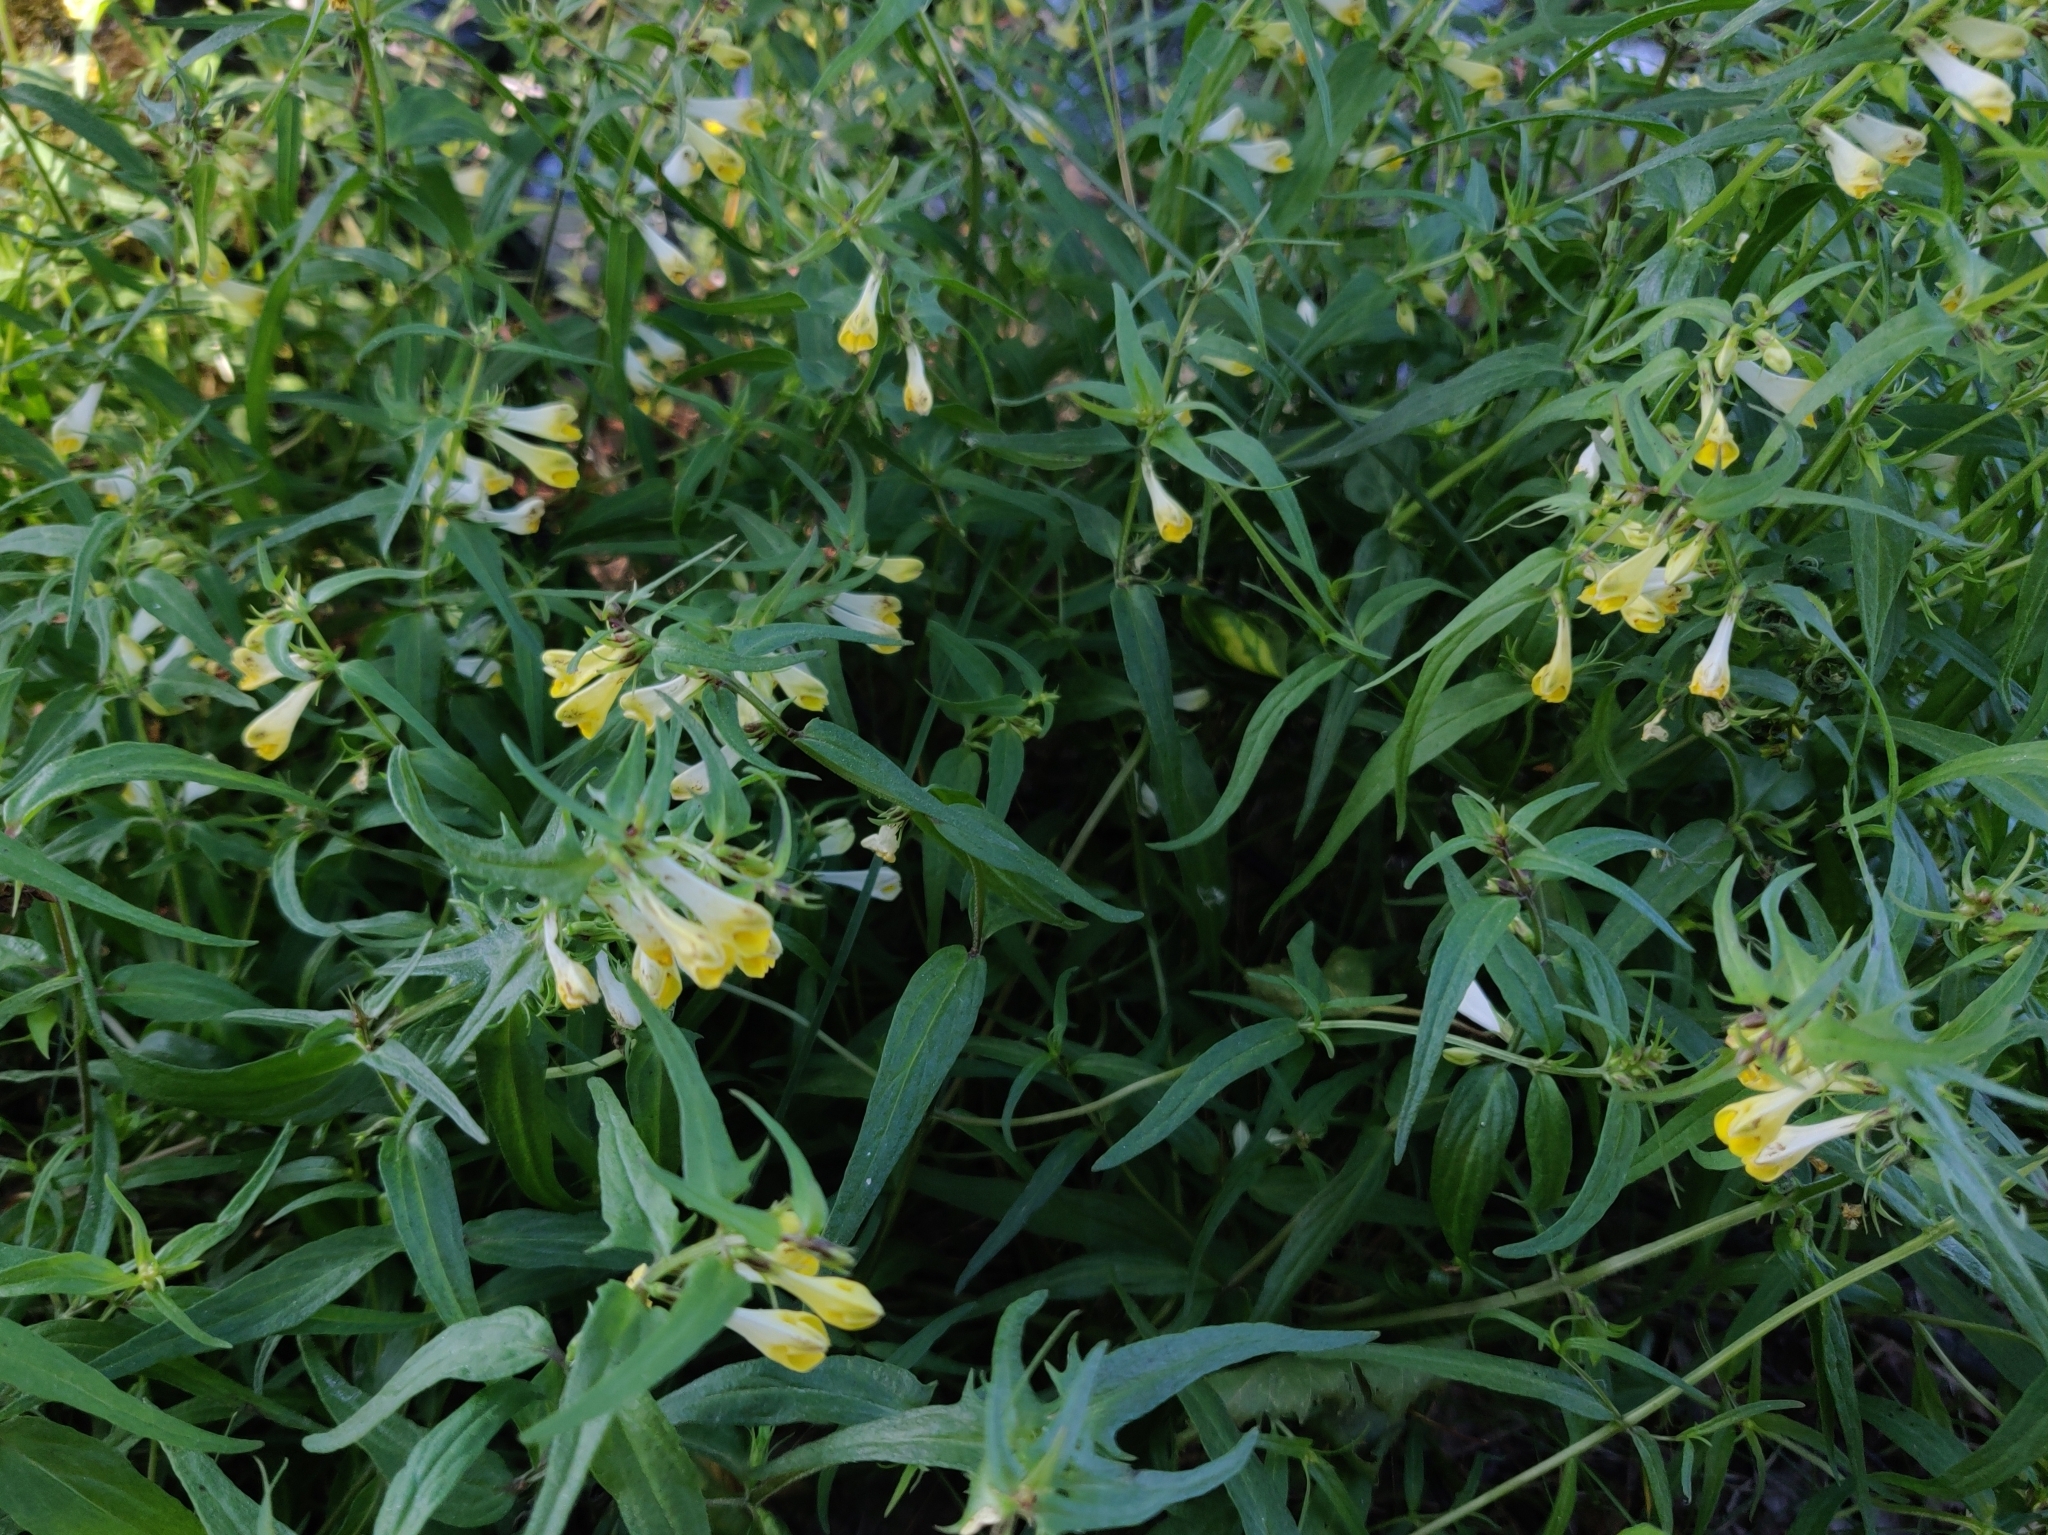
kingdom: Plantae
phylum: Tracheophyta
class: Magnoliopsida
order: Lamiales
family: Orobanchaceae
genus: Melampyrum
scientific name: Melampyrum pratense
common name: Common cow-wheat
